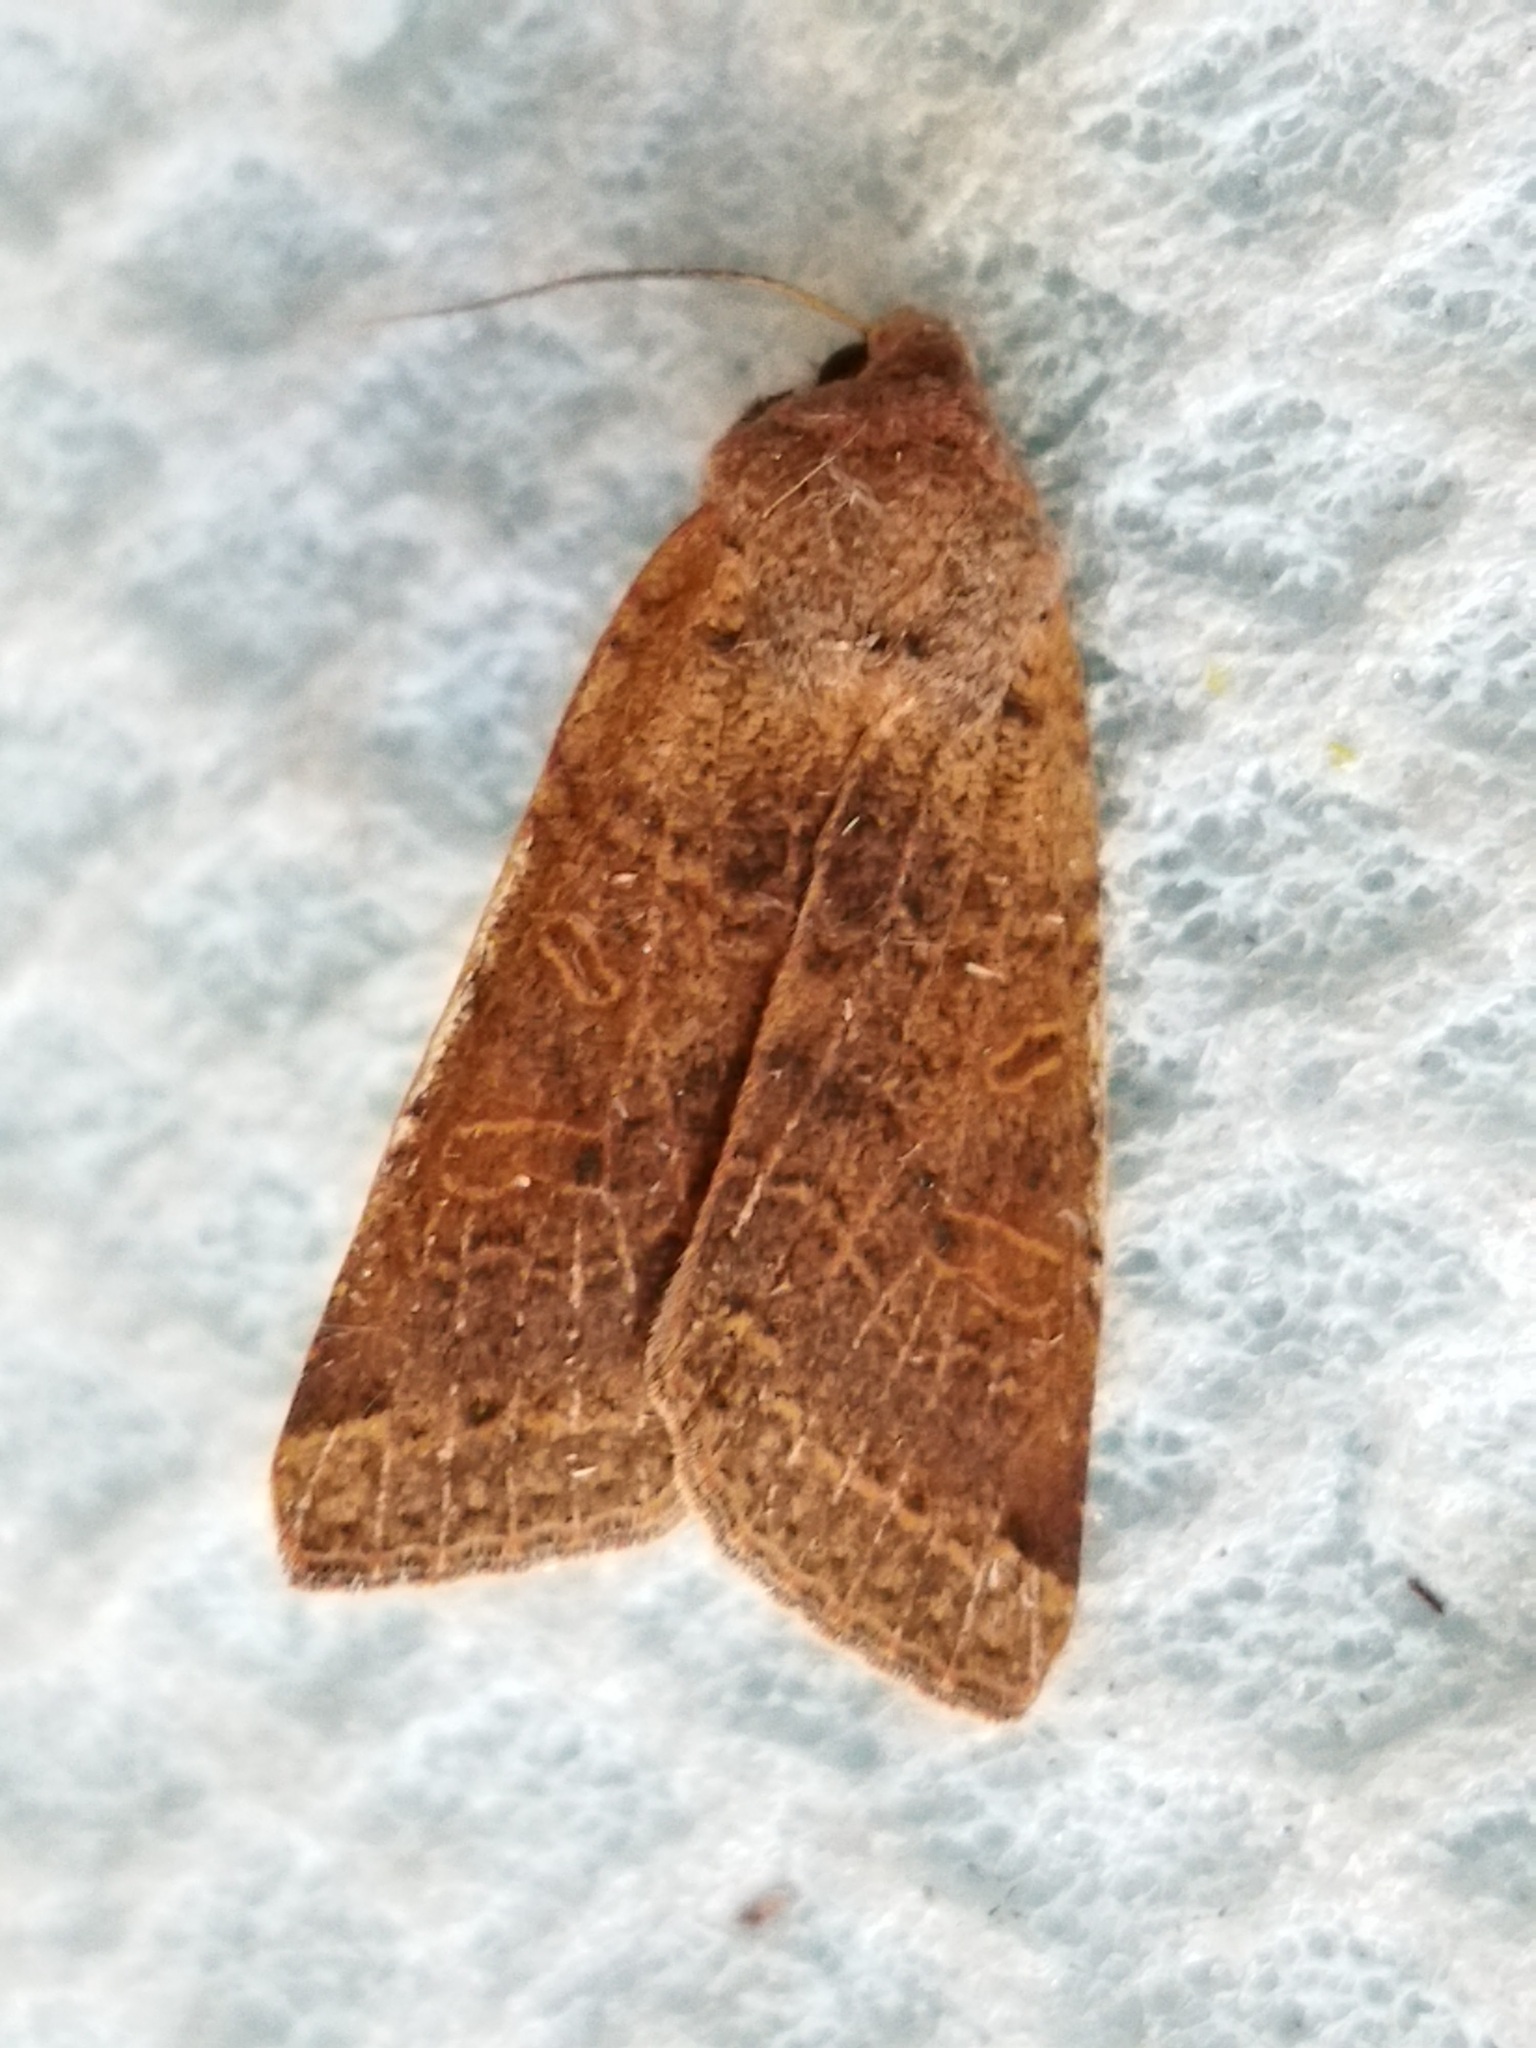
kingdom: Animalia
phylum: Arthropoda
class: Insecta
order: Lepidoptera
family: Noctuidae
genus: Agrochola
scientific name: Agrochola lychnidis
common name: Beaded chestnut
